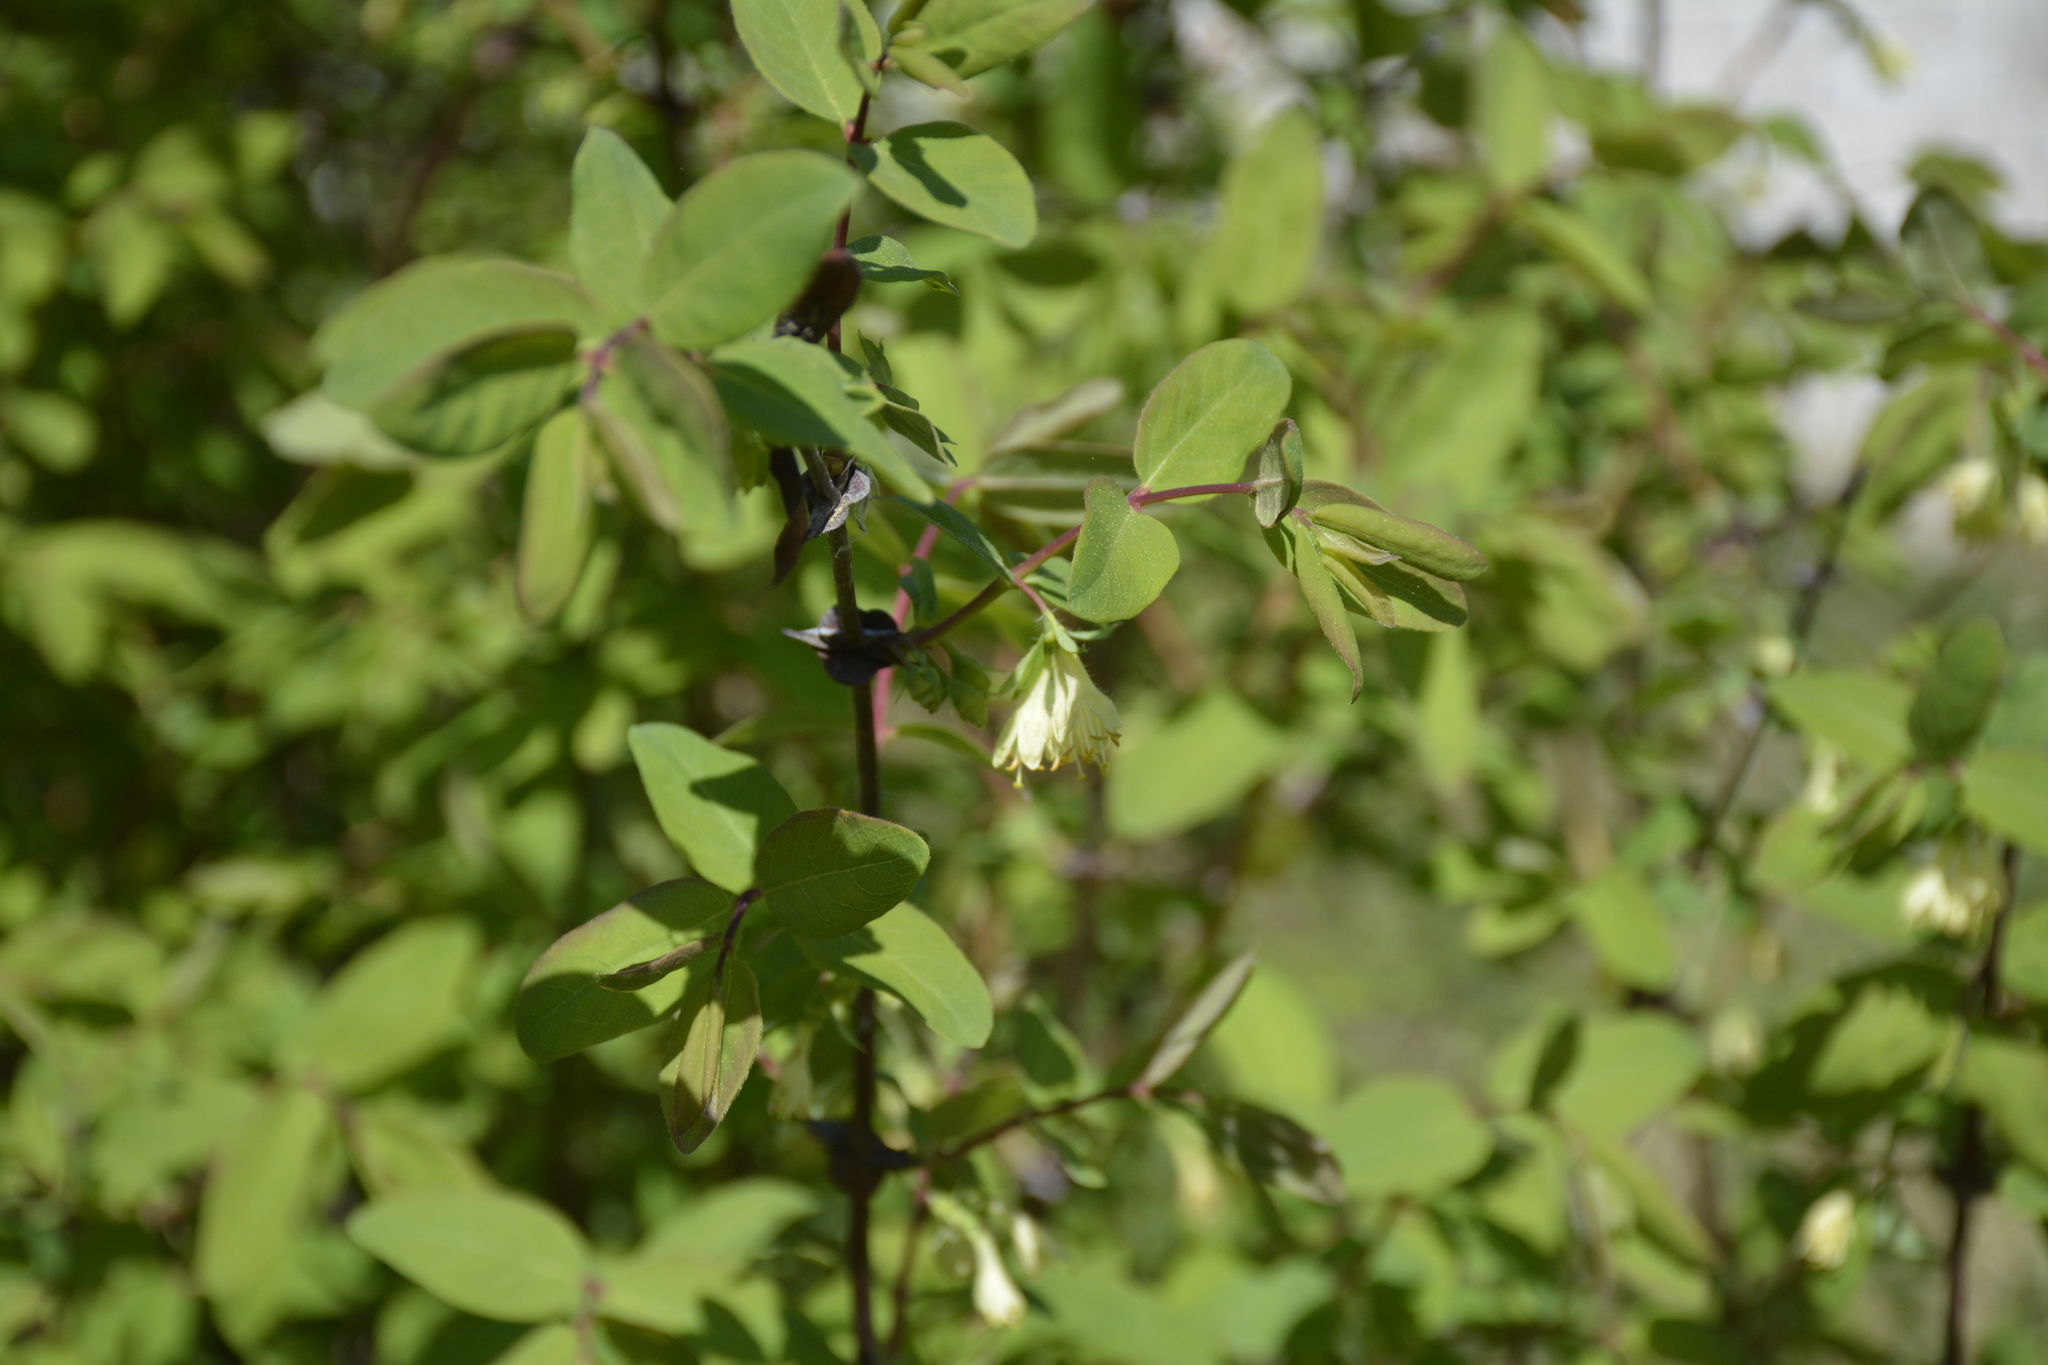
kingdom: Plantae
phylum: Tracheophyta
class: Magnoliopsida
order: Dipsacales
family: Caprifoliaceae
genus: Lonicera
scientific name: Lonicera caerulea
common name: Blue honeysuckle
